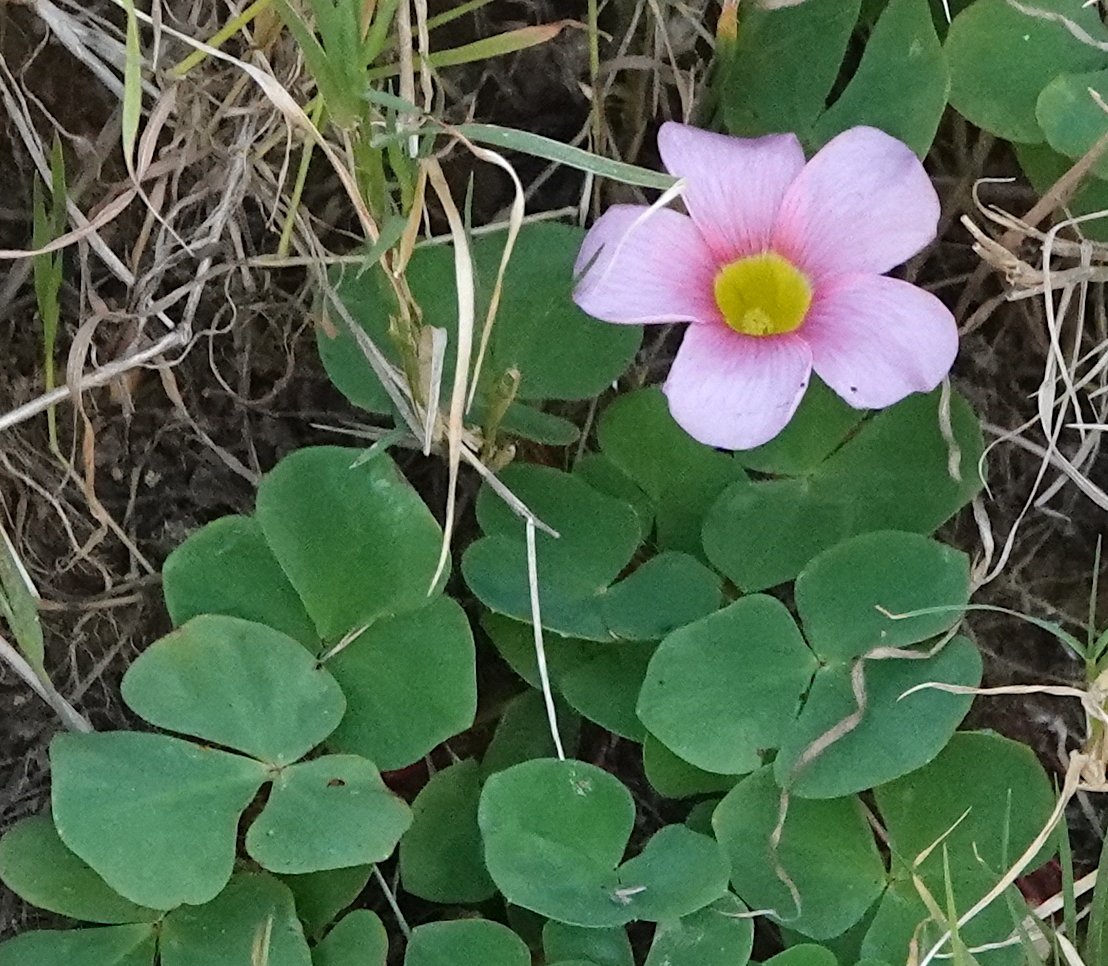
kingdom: Plantae
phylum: Tracheophyta
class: Magnoliopsida
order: Oxalidales
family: Oxalidaceae
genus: Oxalis
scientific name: Oxalis purpurea
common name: Purple woodsorrel
